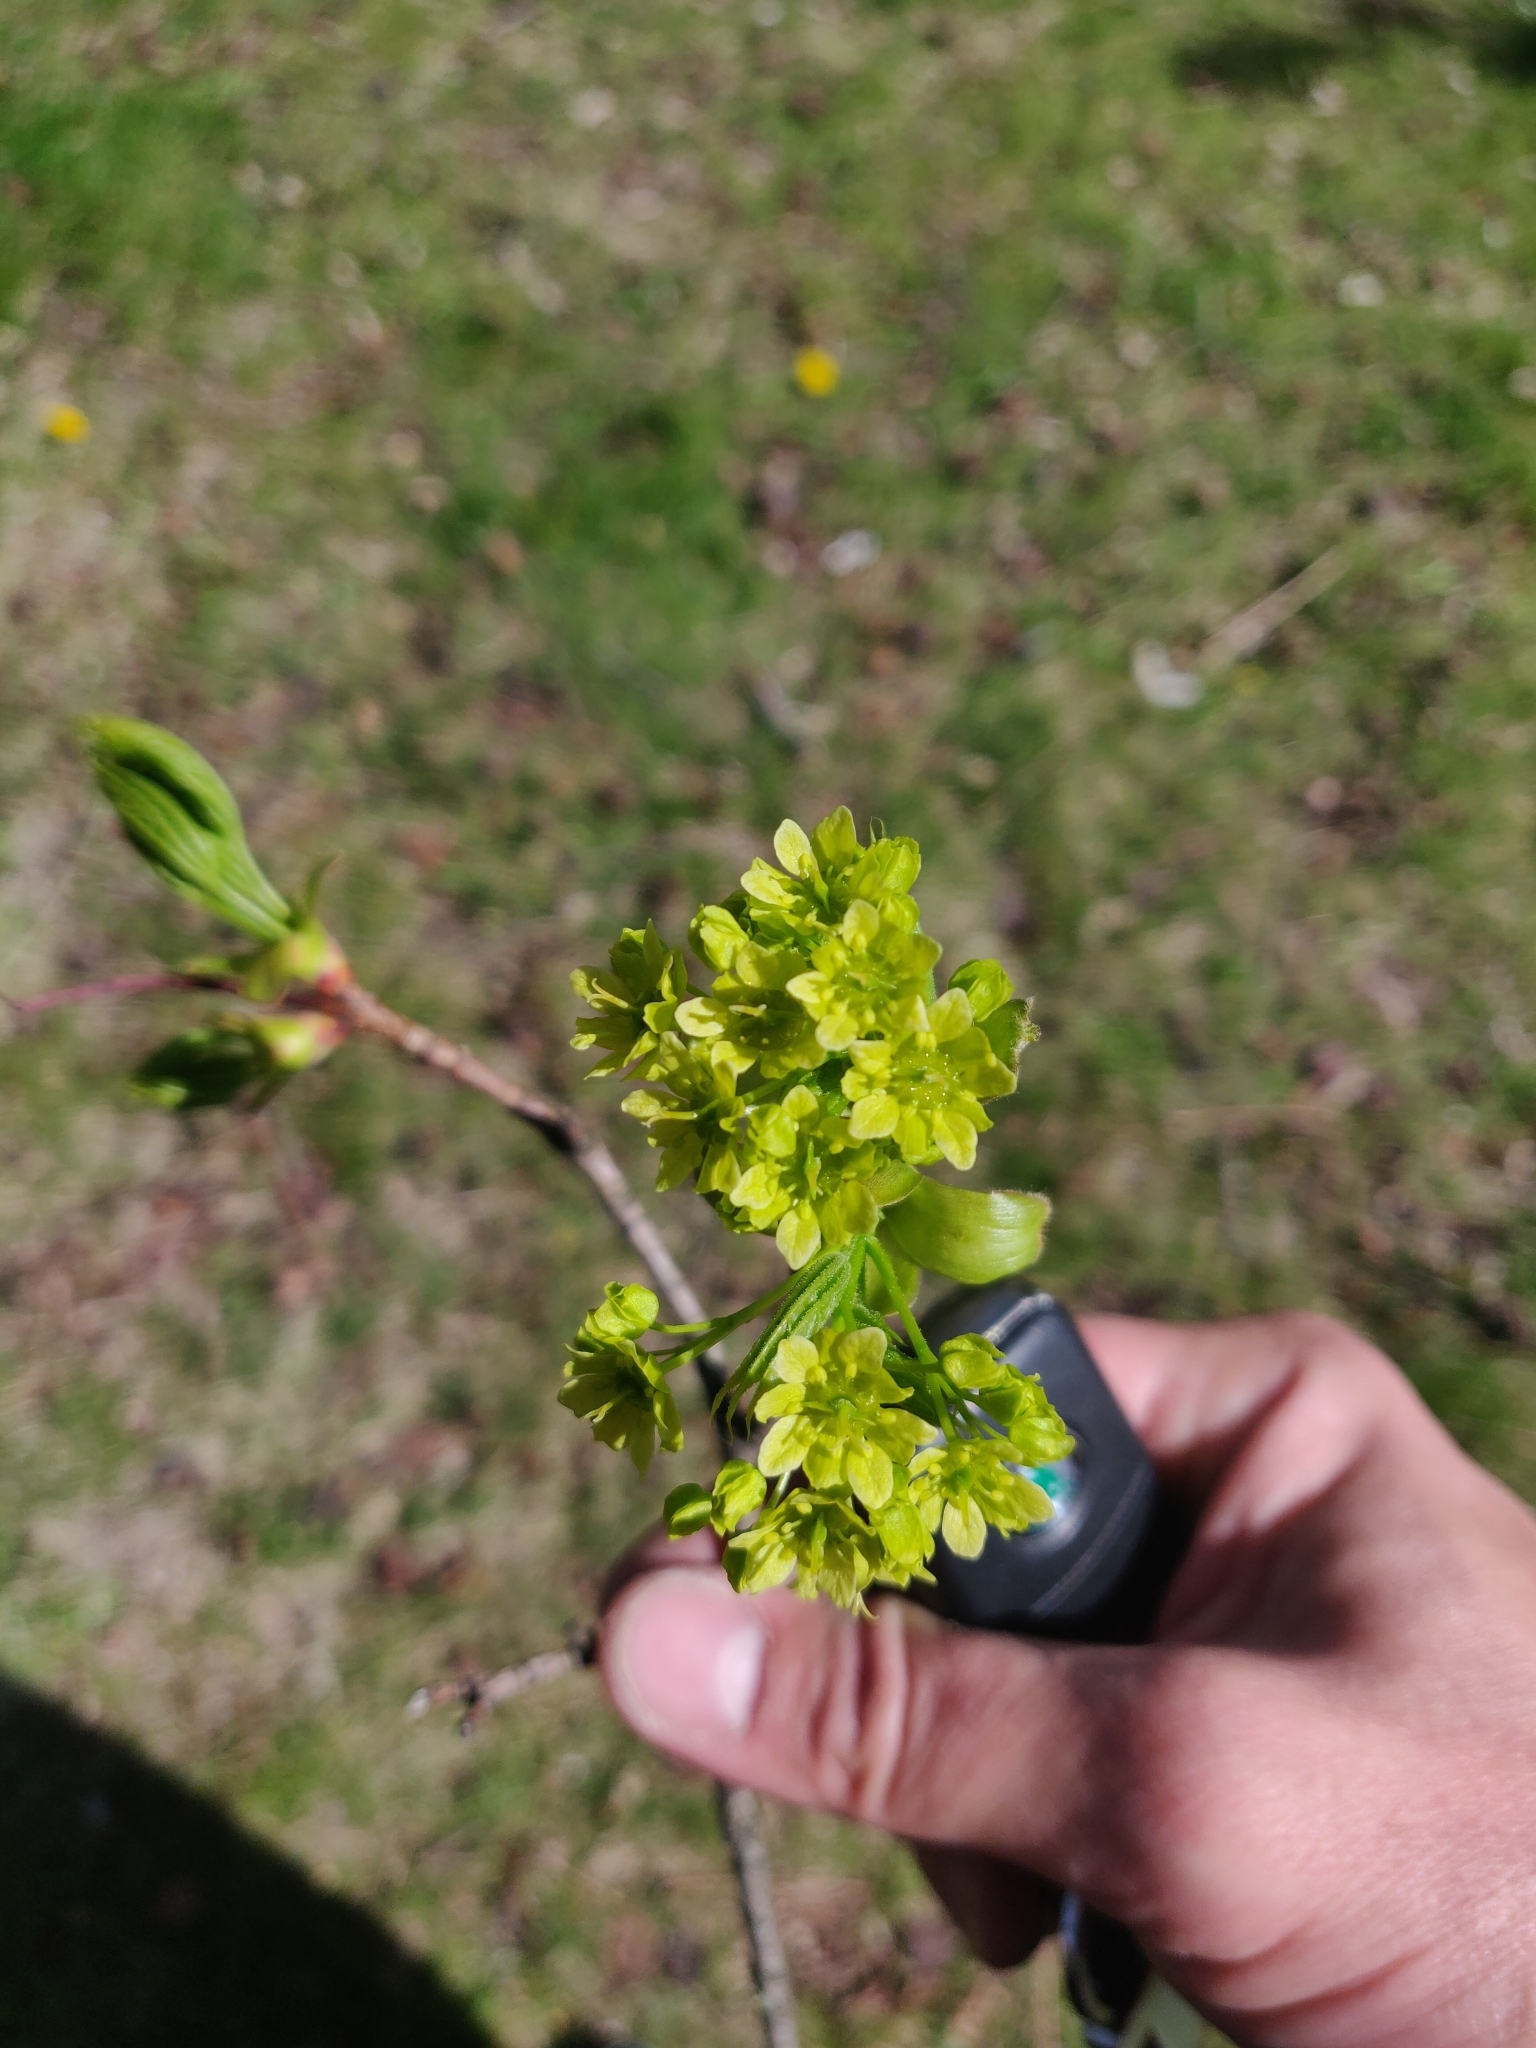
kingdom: Plantae
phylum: Tracheophyta
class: Magnoliopsida
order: Sapindales
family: Sapindaceae
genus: Acer
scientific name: Acer platanoides
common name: Norway maple
